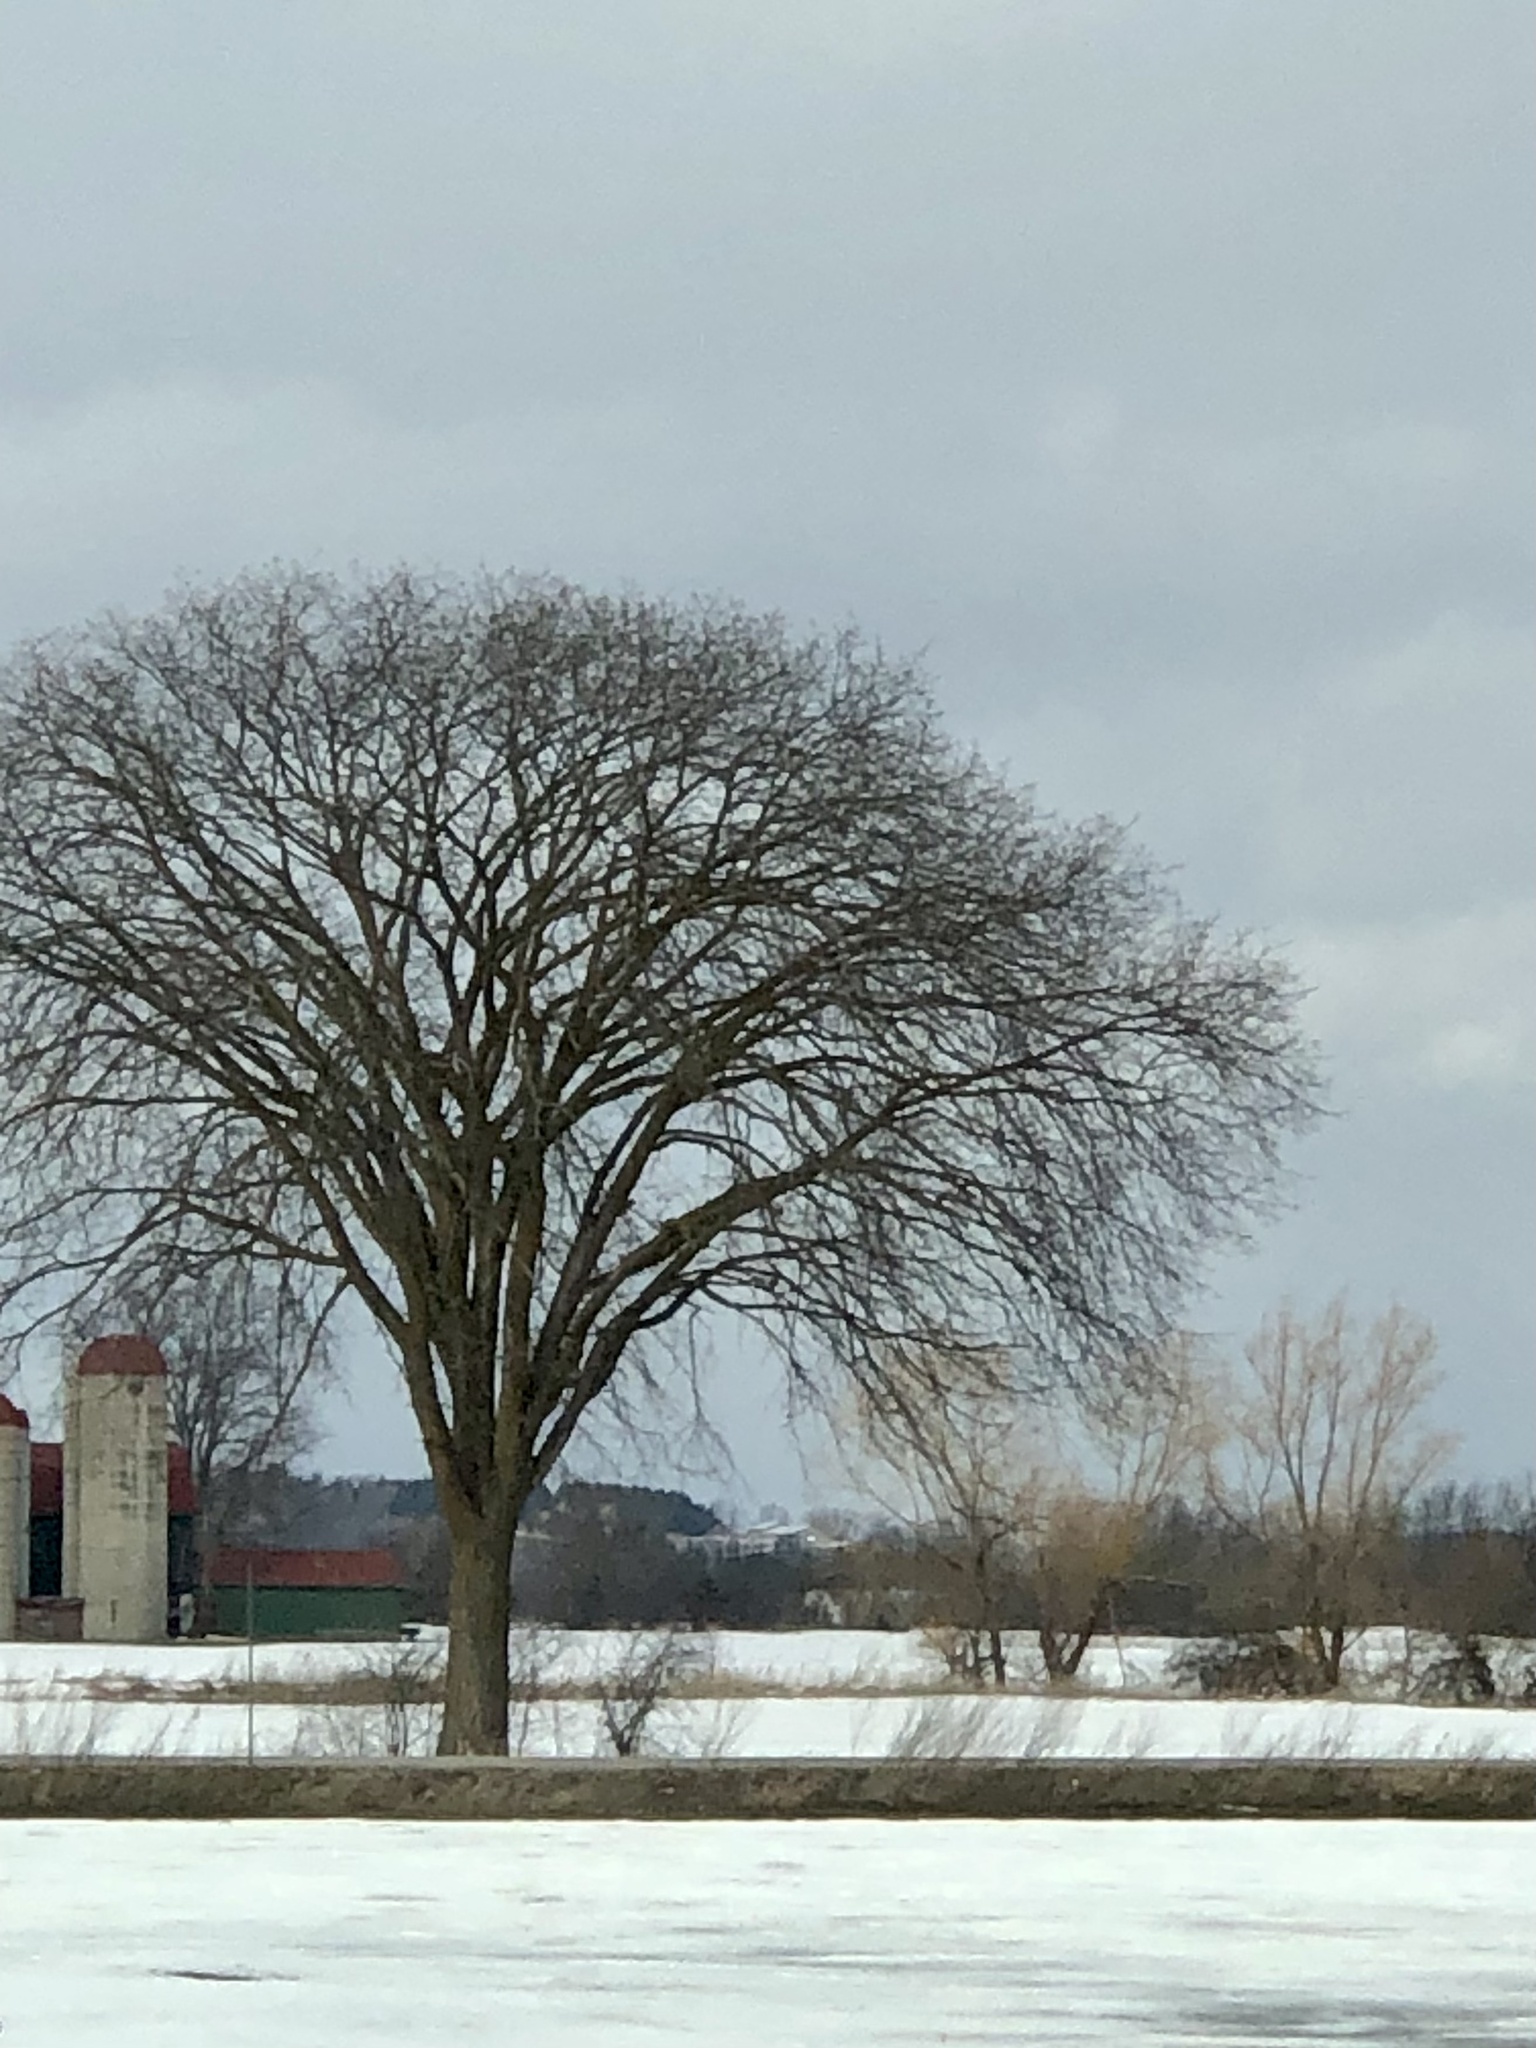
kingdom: Plantae
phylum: Tracheophyta
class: Magnoliopsida
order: Rosales
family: Ulmaceae
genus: Ulmus
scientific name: Ulmus americana
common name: American elm
